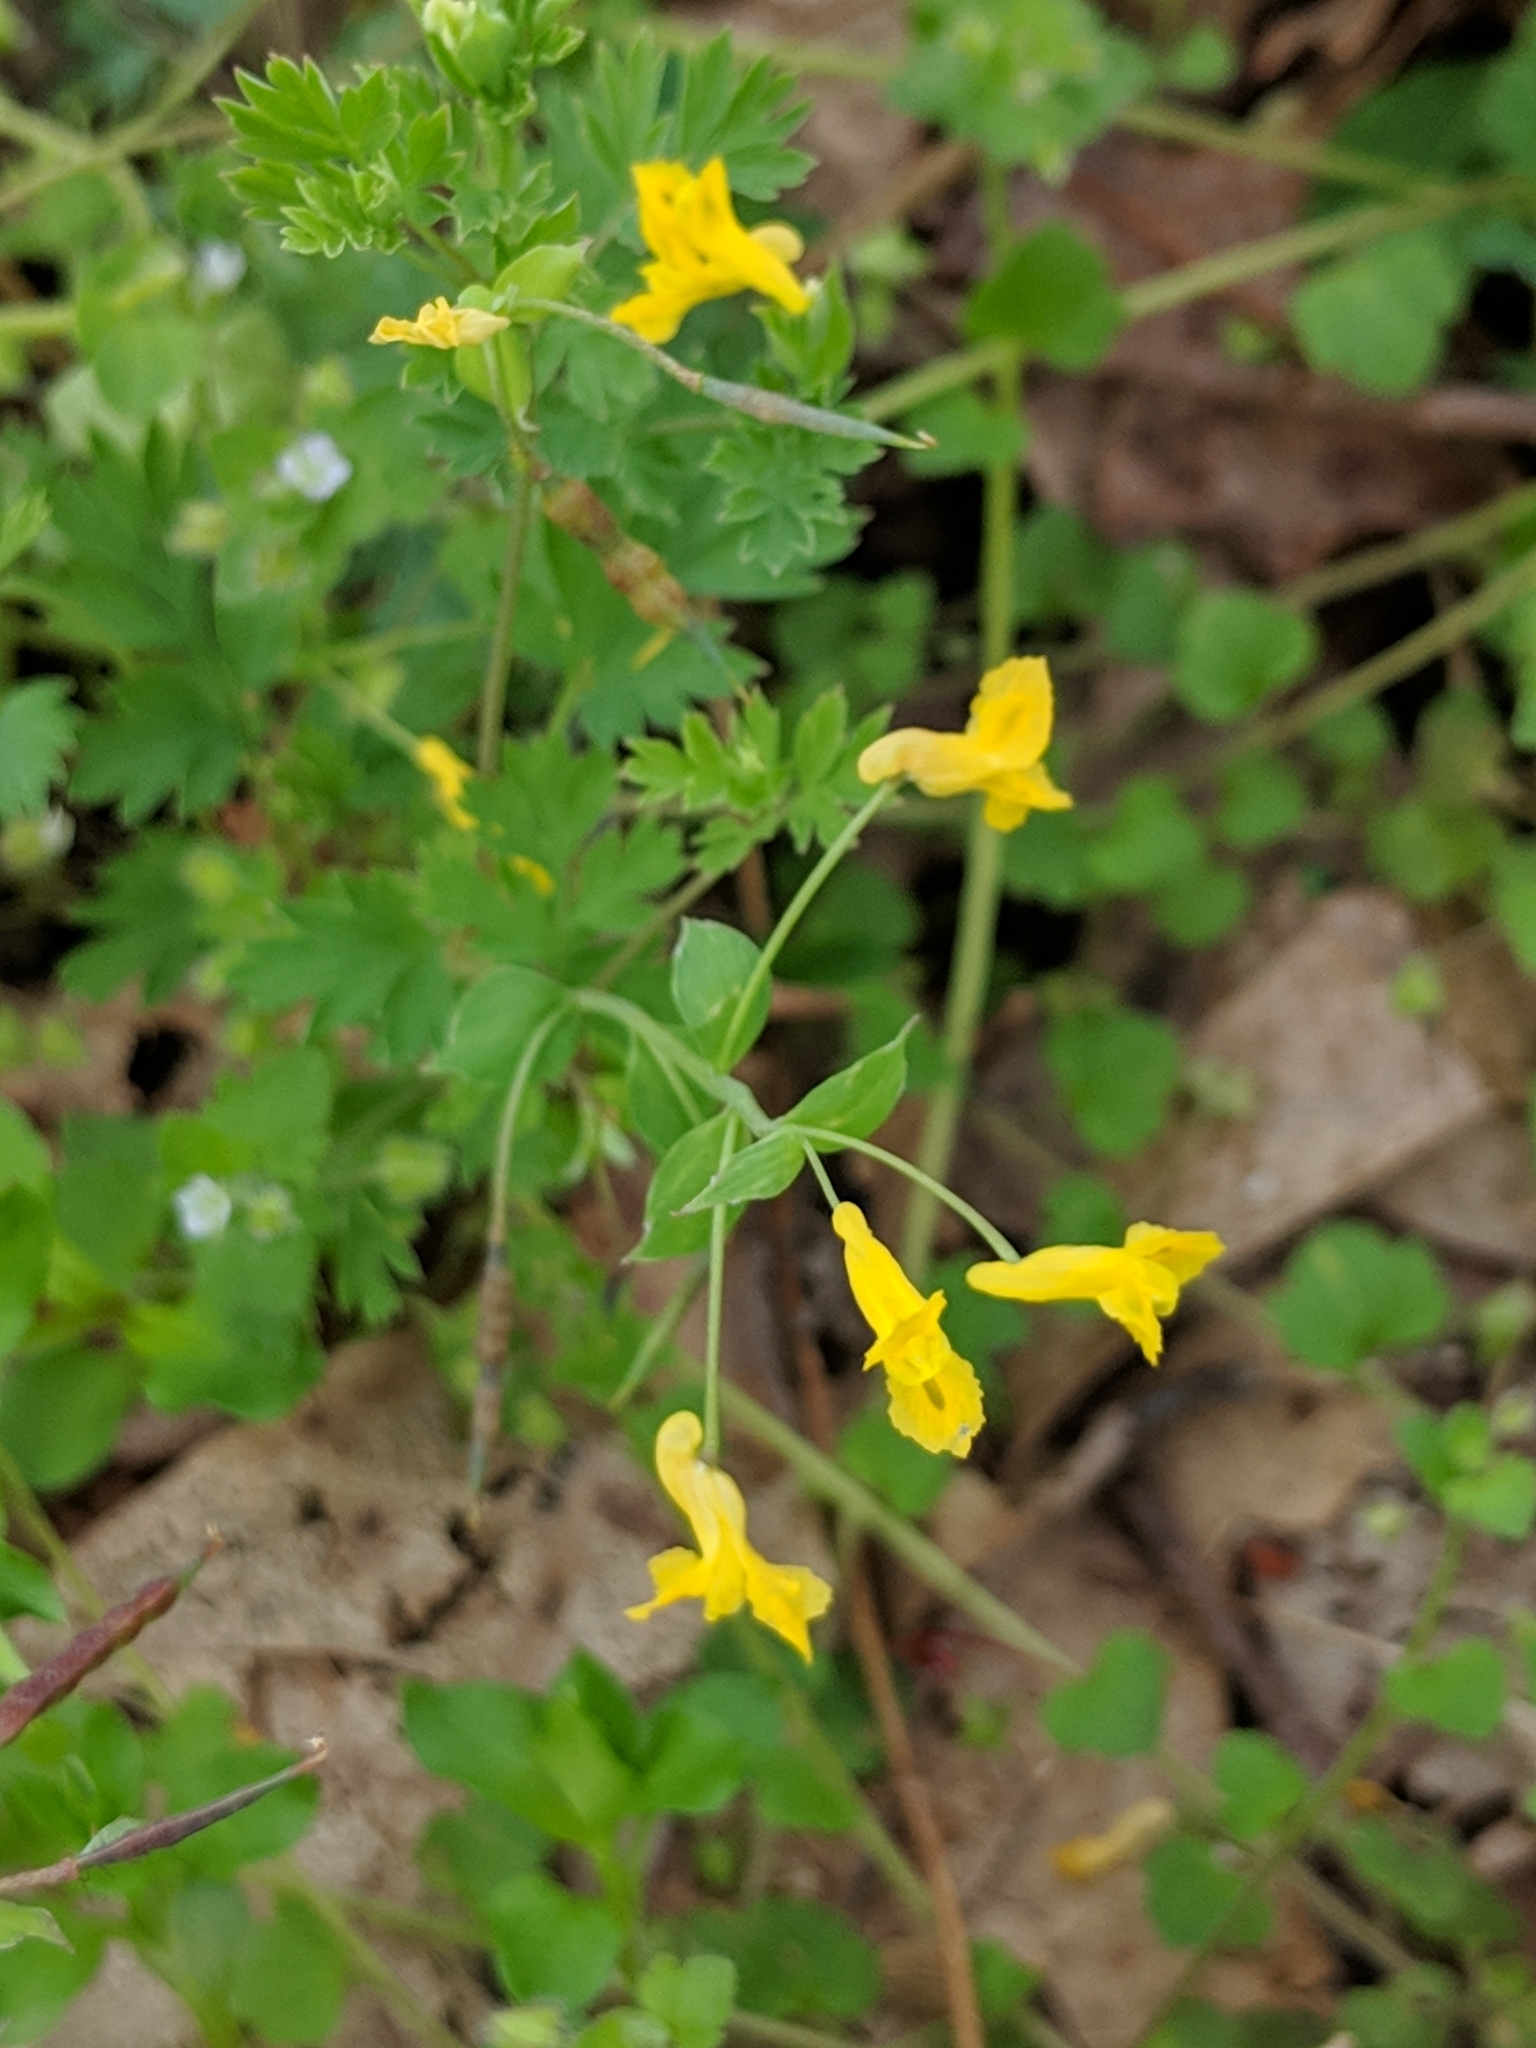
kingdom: Plantae
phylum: Tracheophyta
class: Magnoliopsida
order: Ranunculales
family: Papaveraceae
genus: Corydalis
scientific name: Corydalis flavula
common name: Yellow corydalis
